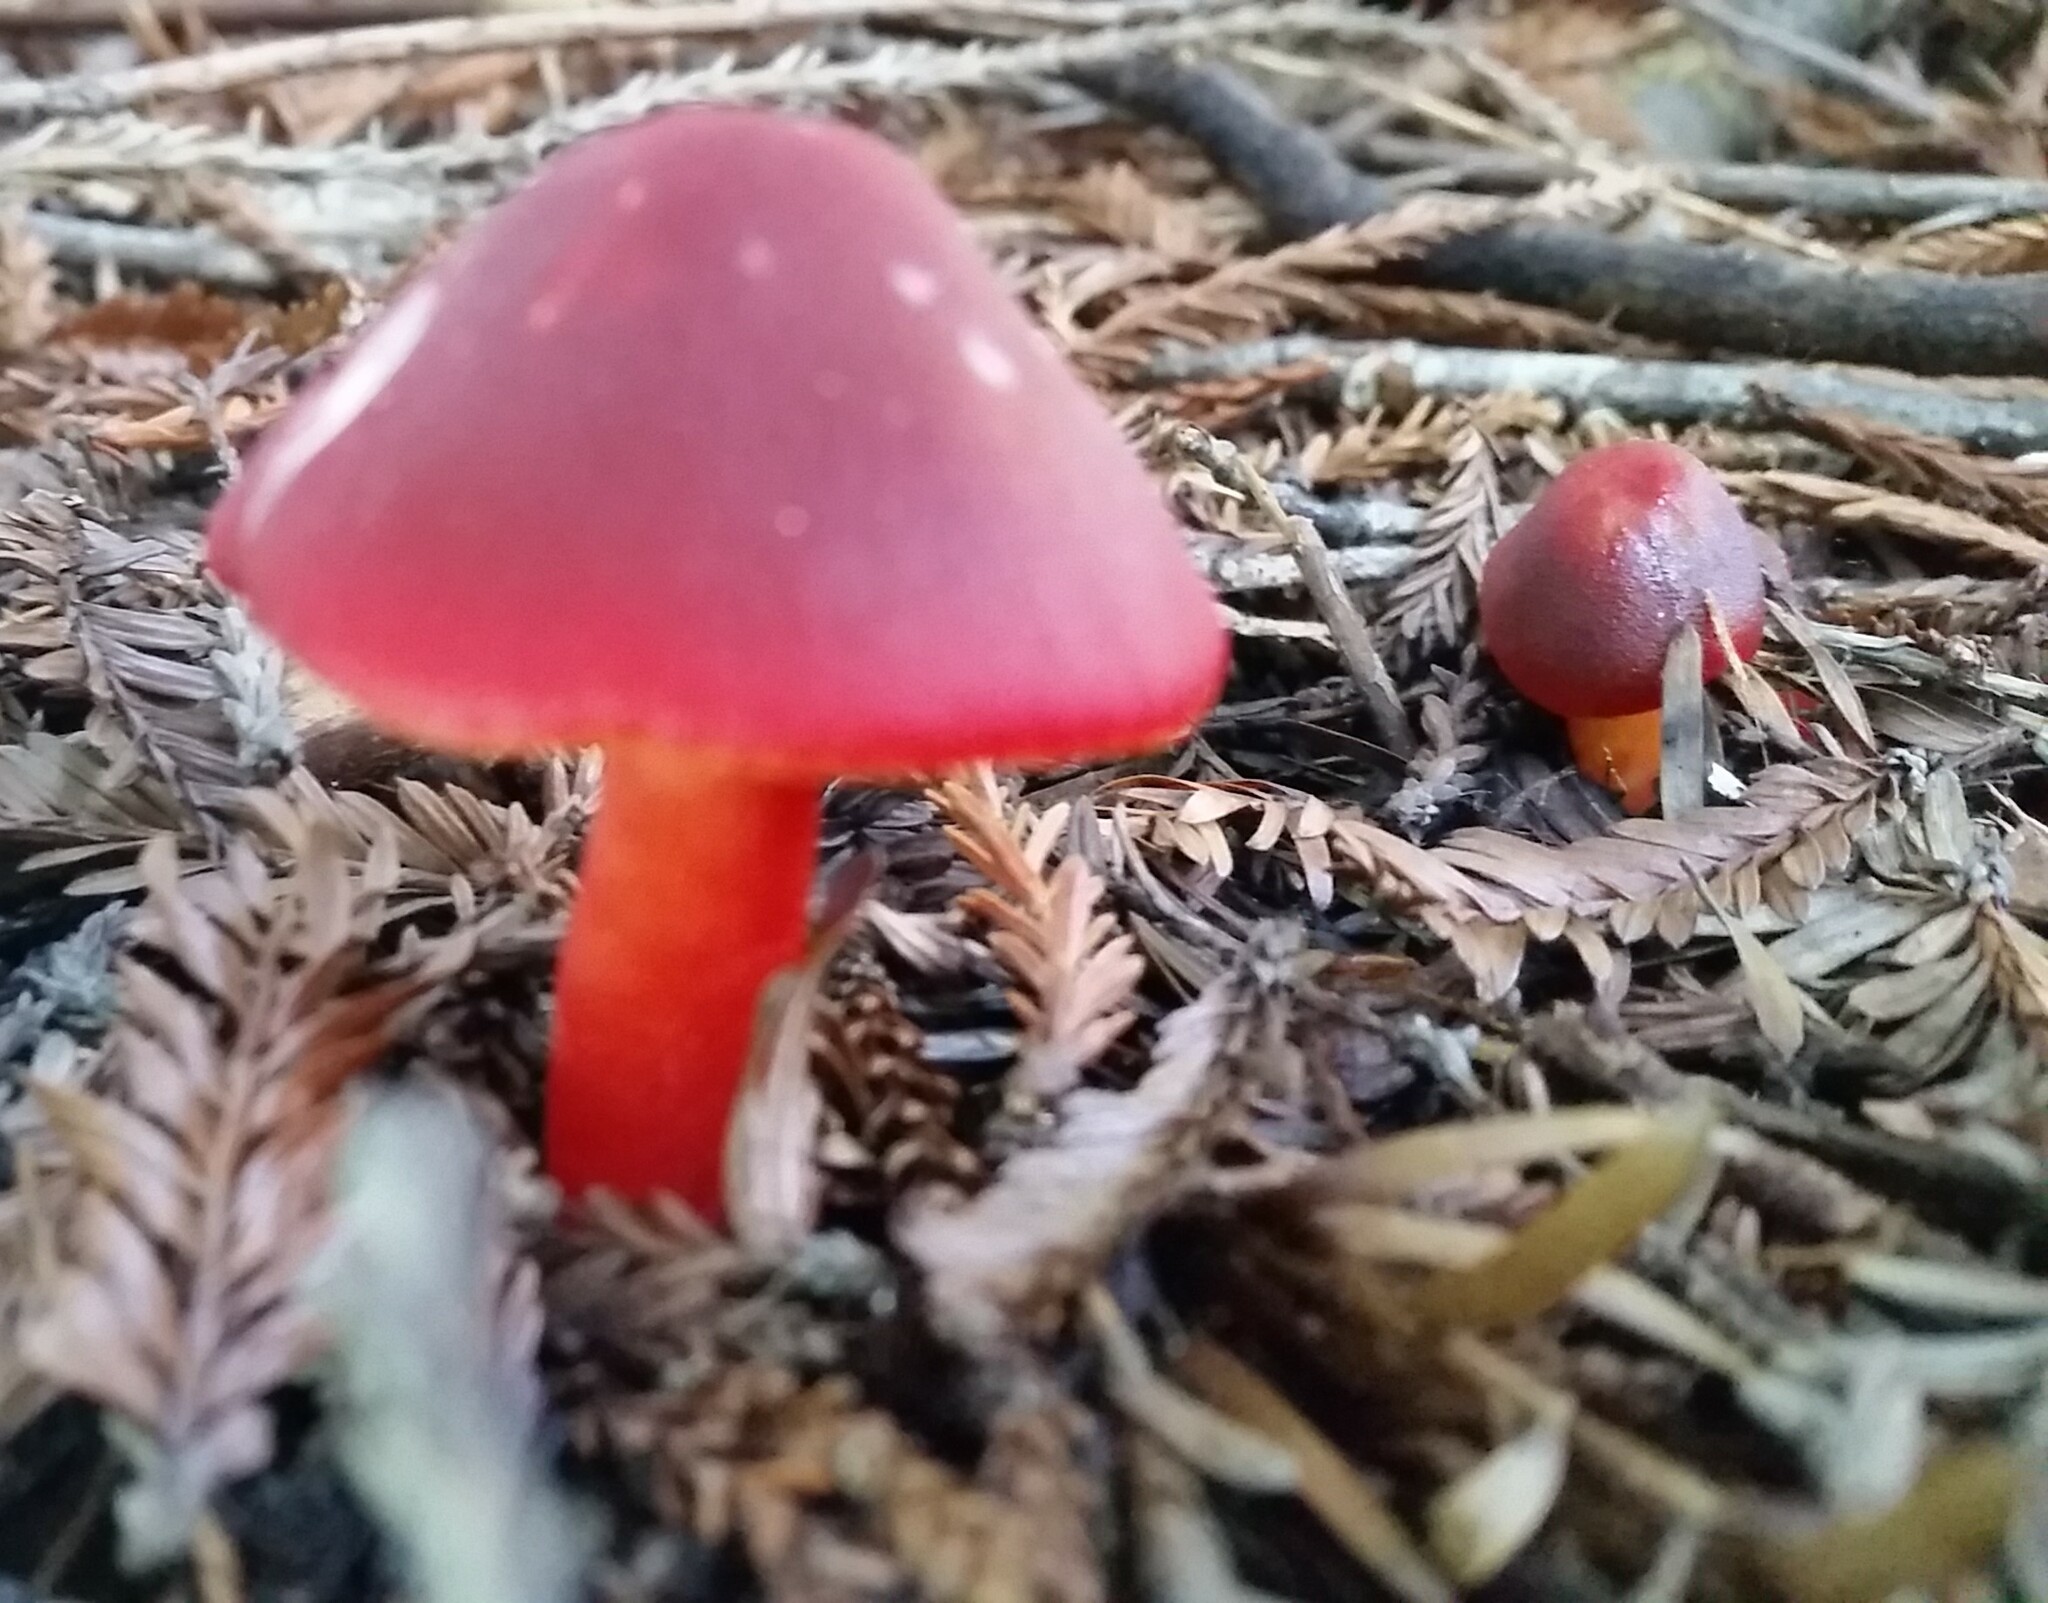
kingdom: Fungi
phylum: Basidiomycota
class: Agaricomycetes
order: Agaricales
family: Hygrophoraceae
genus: Hygrocybe
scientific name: Hygrocybe punicea
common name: Crimson waxcap
